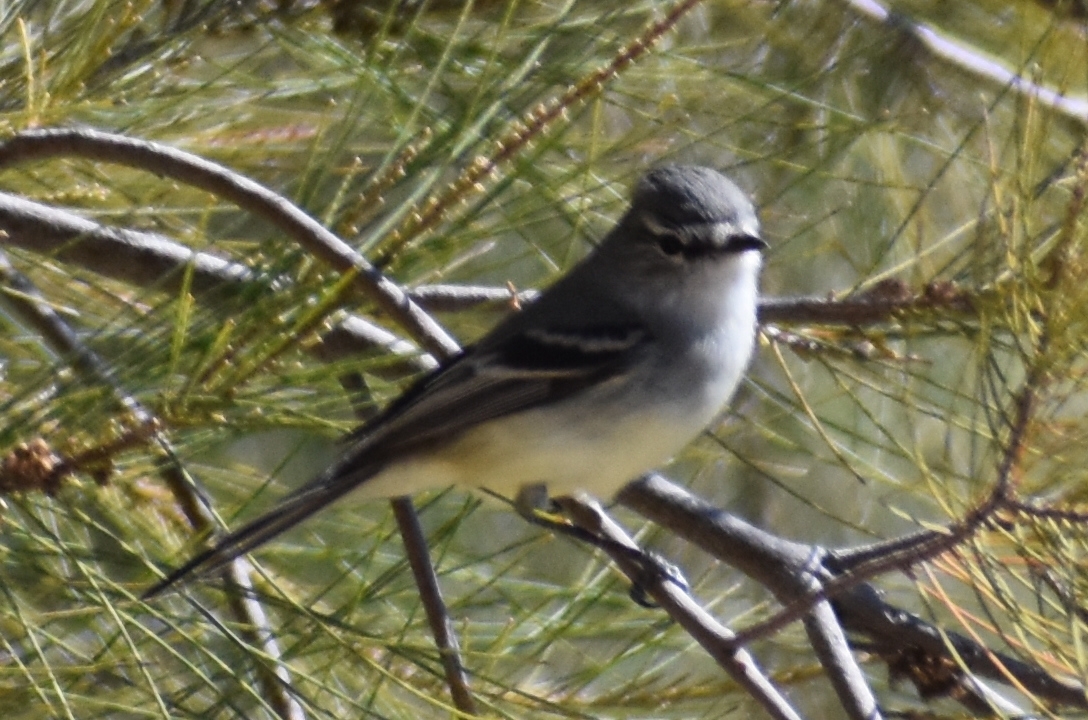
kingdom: Animalia
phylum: Chordata
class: Aves
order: Passeriformes
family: Tyrannidae
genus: Serpophaga
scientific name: Serpophaga subcristata
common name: White-crested tyrannulet
